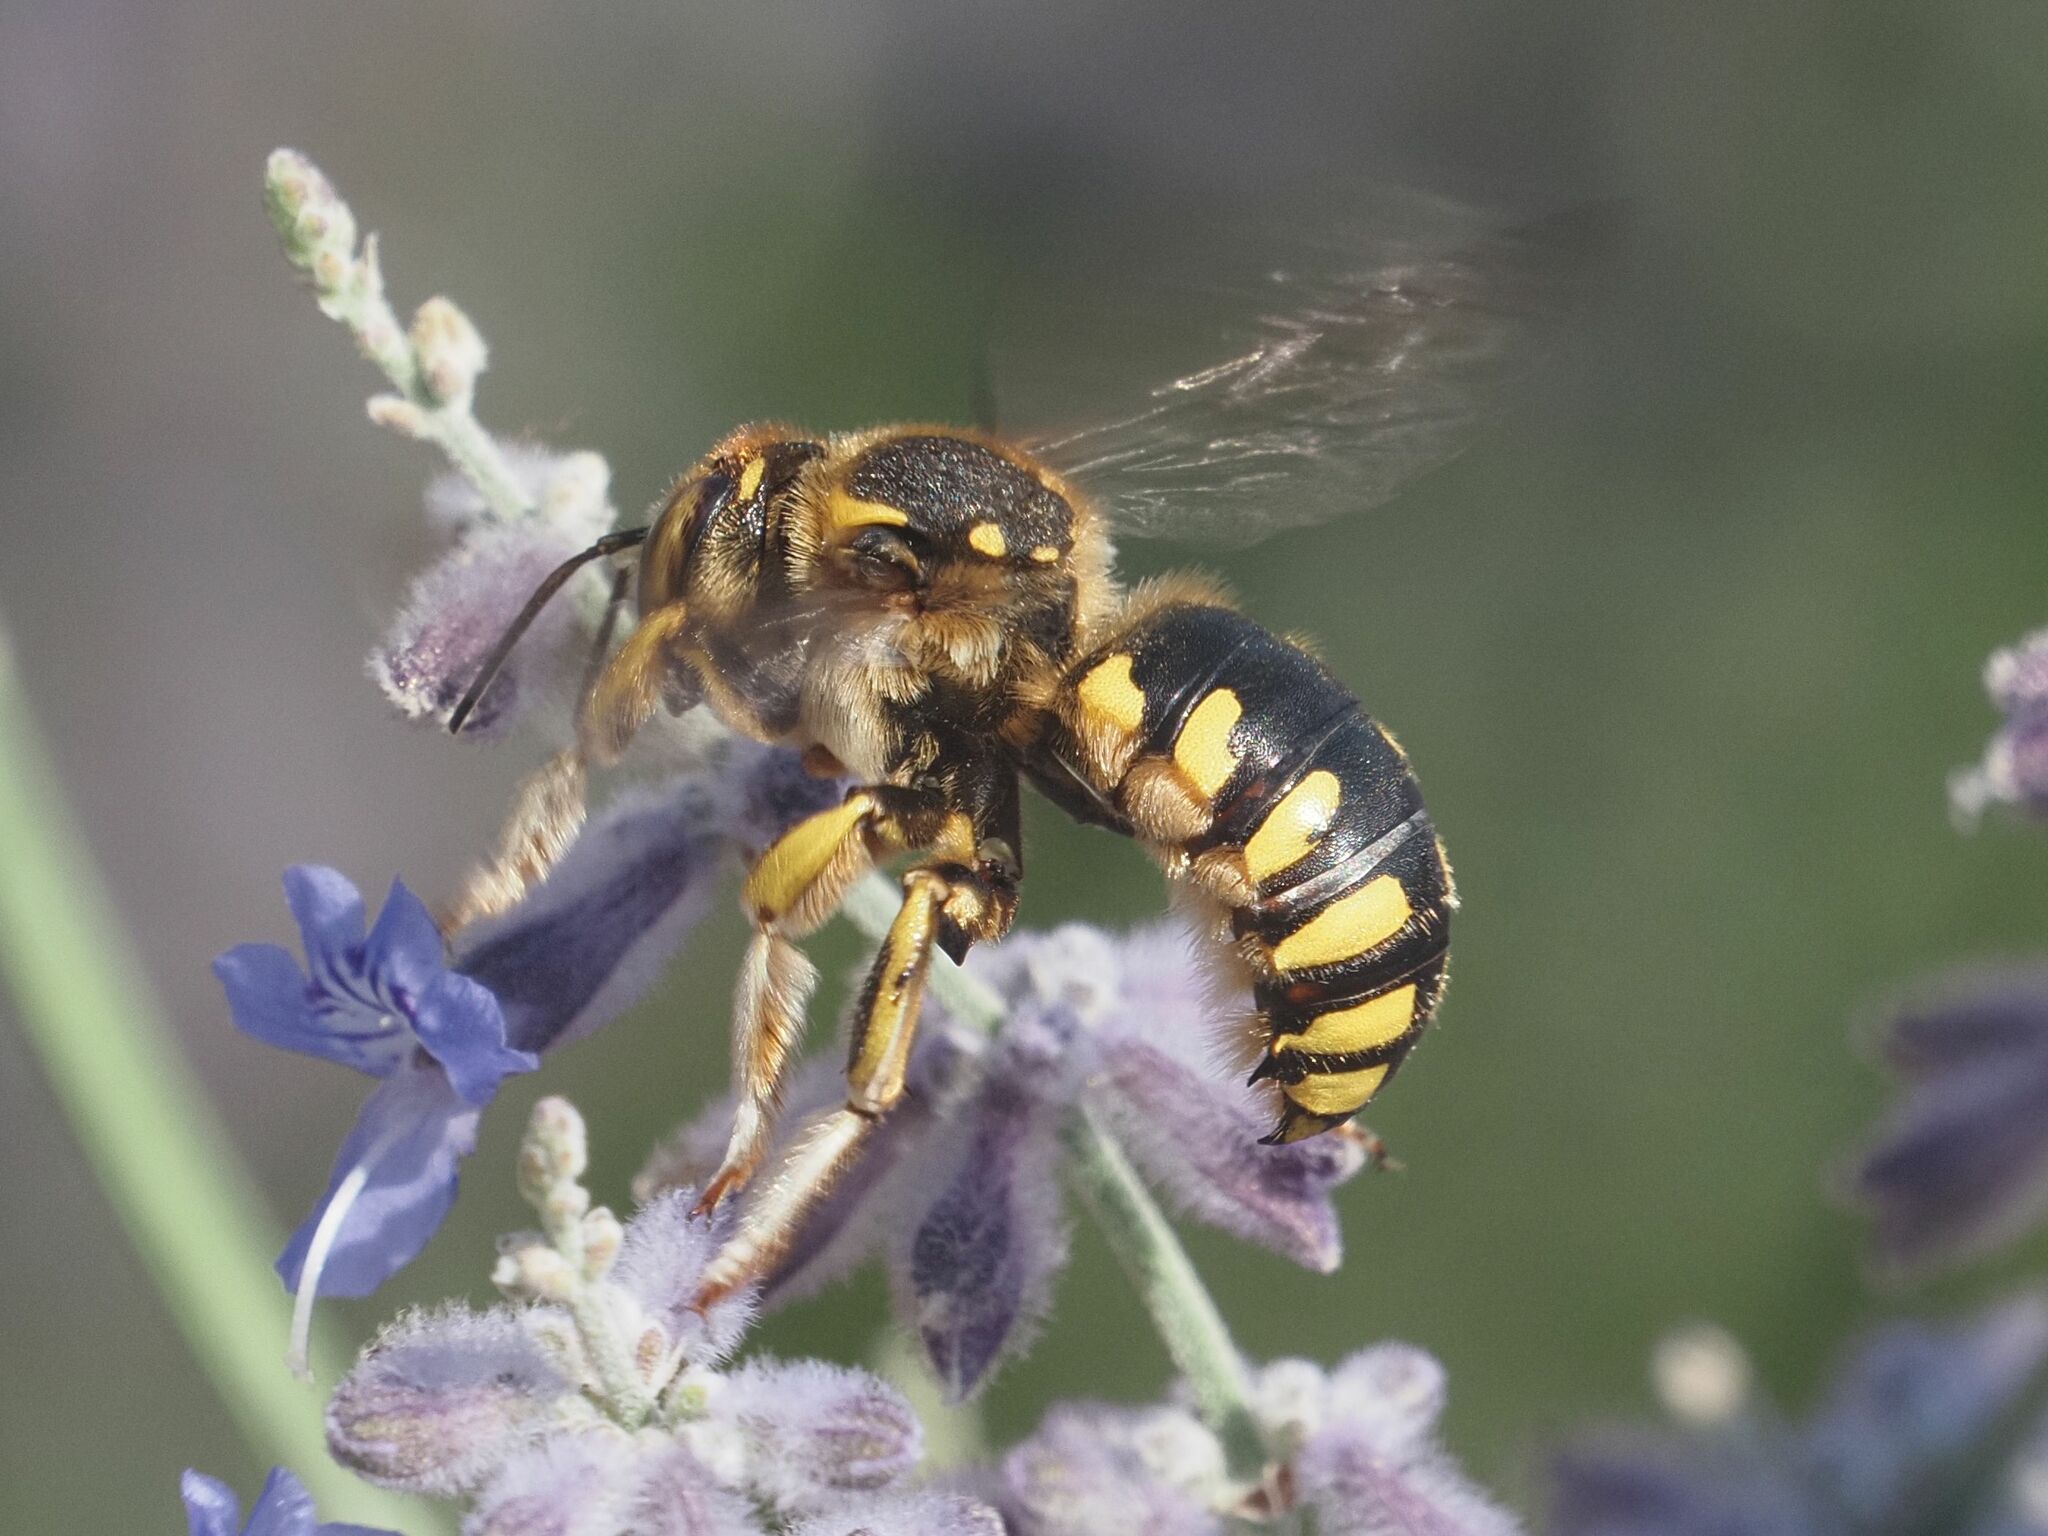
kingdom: Animalia
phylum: Arthropoda
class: Insecta
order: Hymenoptera
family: Megachilidae
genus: Anthidium
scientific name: Anthidium florentinum
